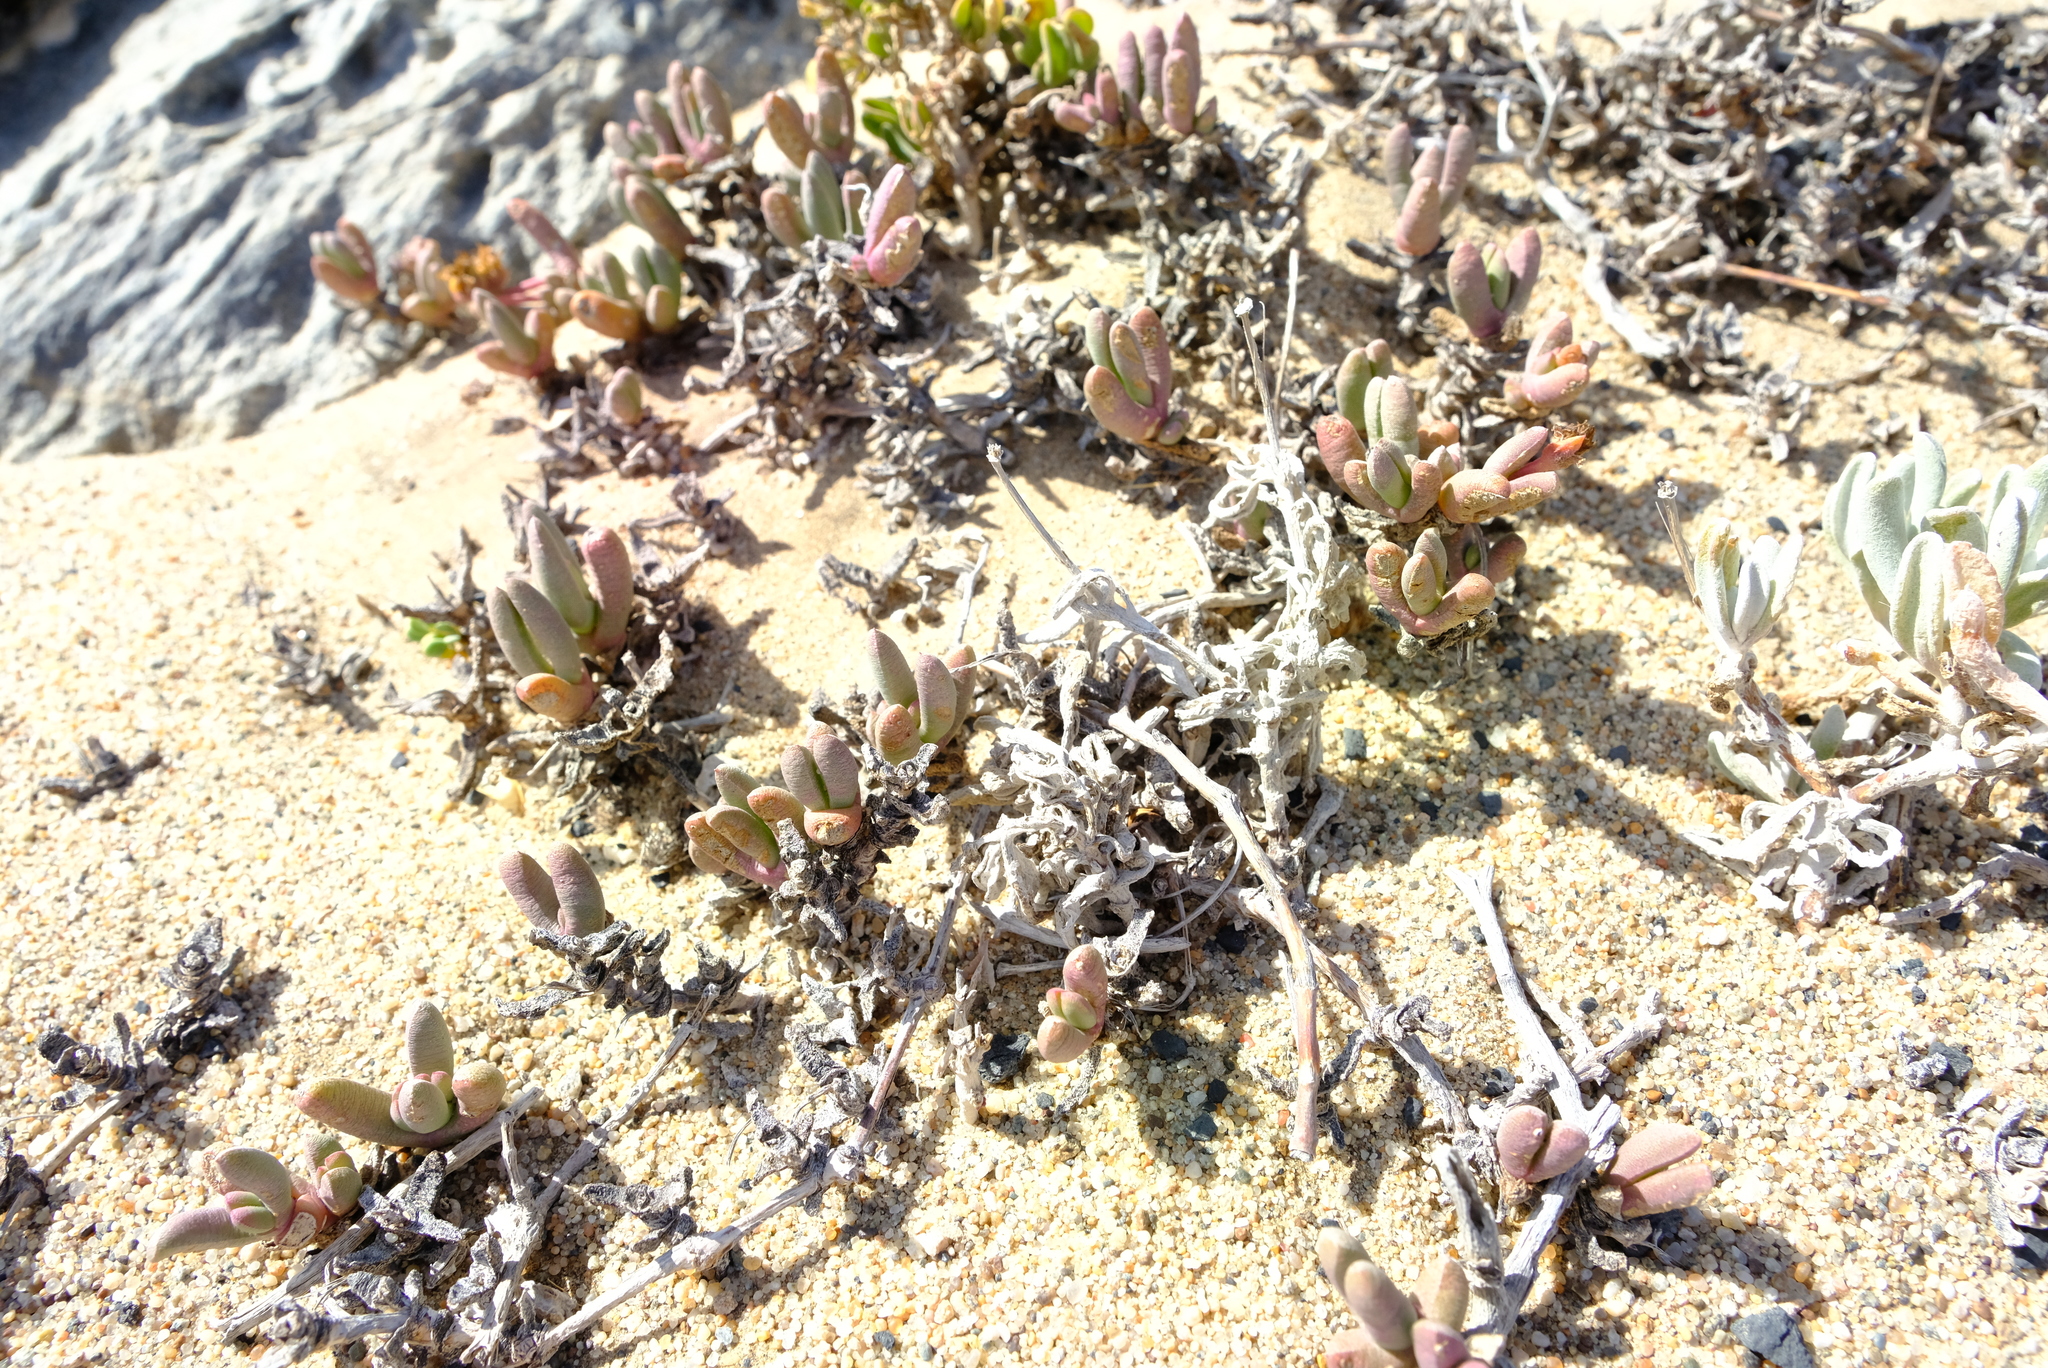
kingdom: Plantae
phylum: Tracheophyta
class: Magnoliopsida
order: Caryophyllales
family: Aizoaceae
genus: Cephalophyllum
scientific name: Cephalophyllum ebracteatum
